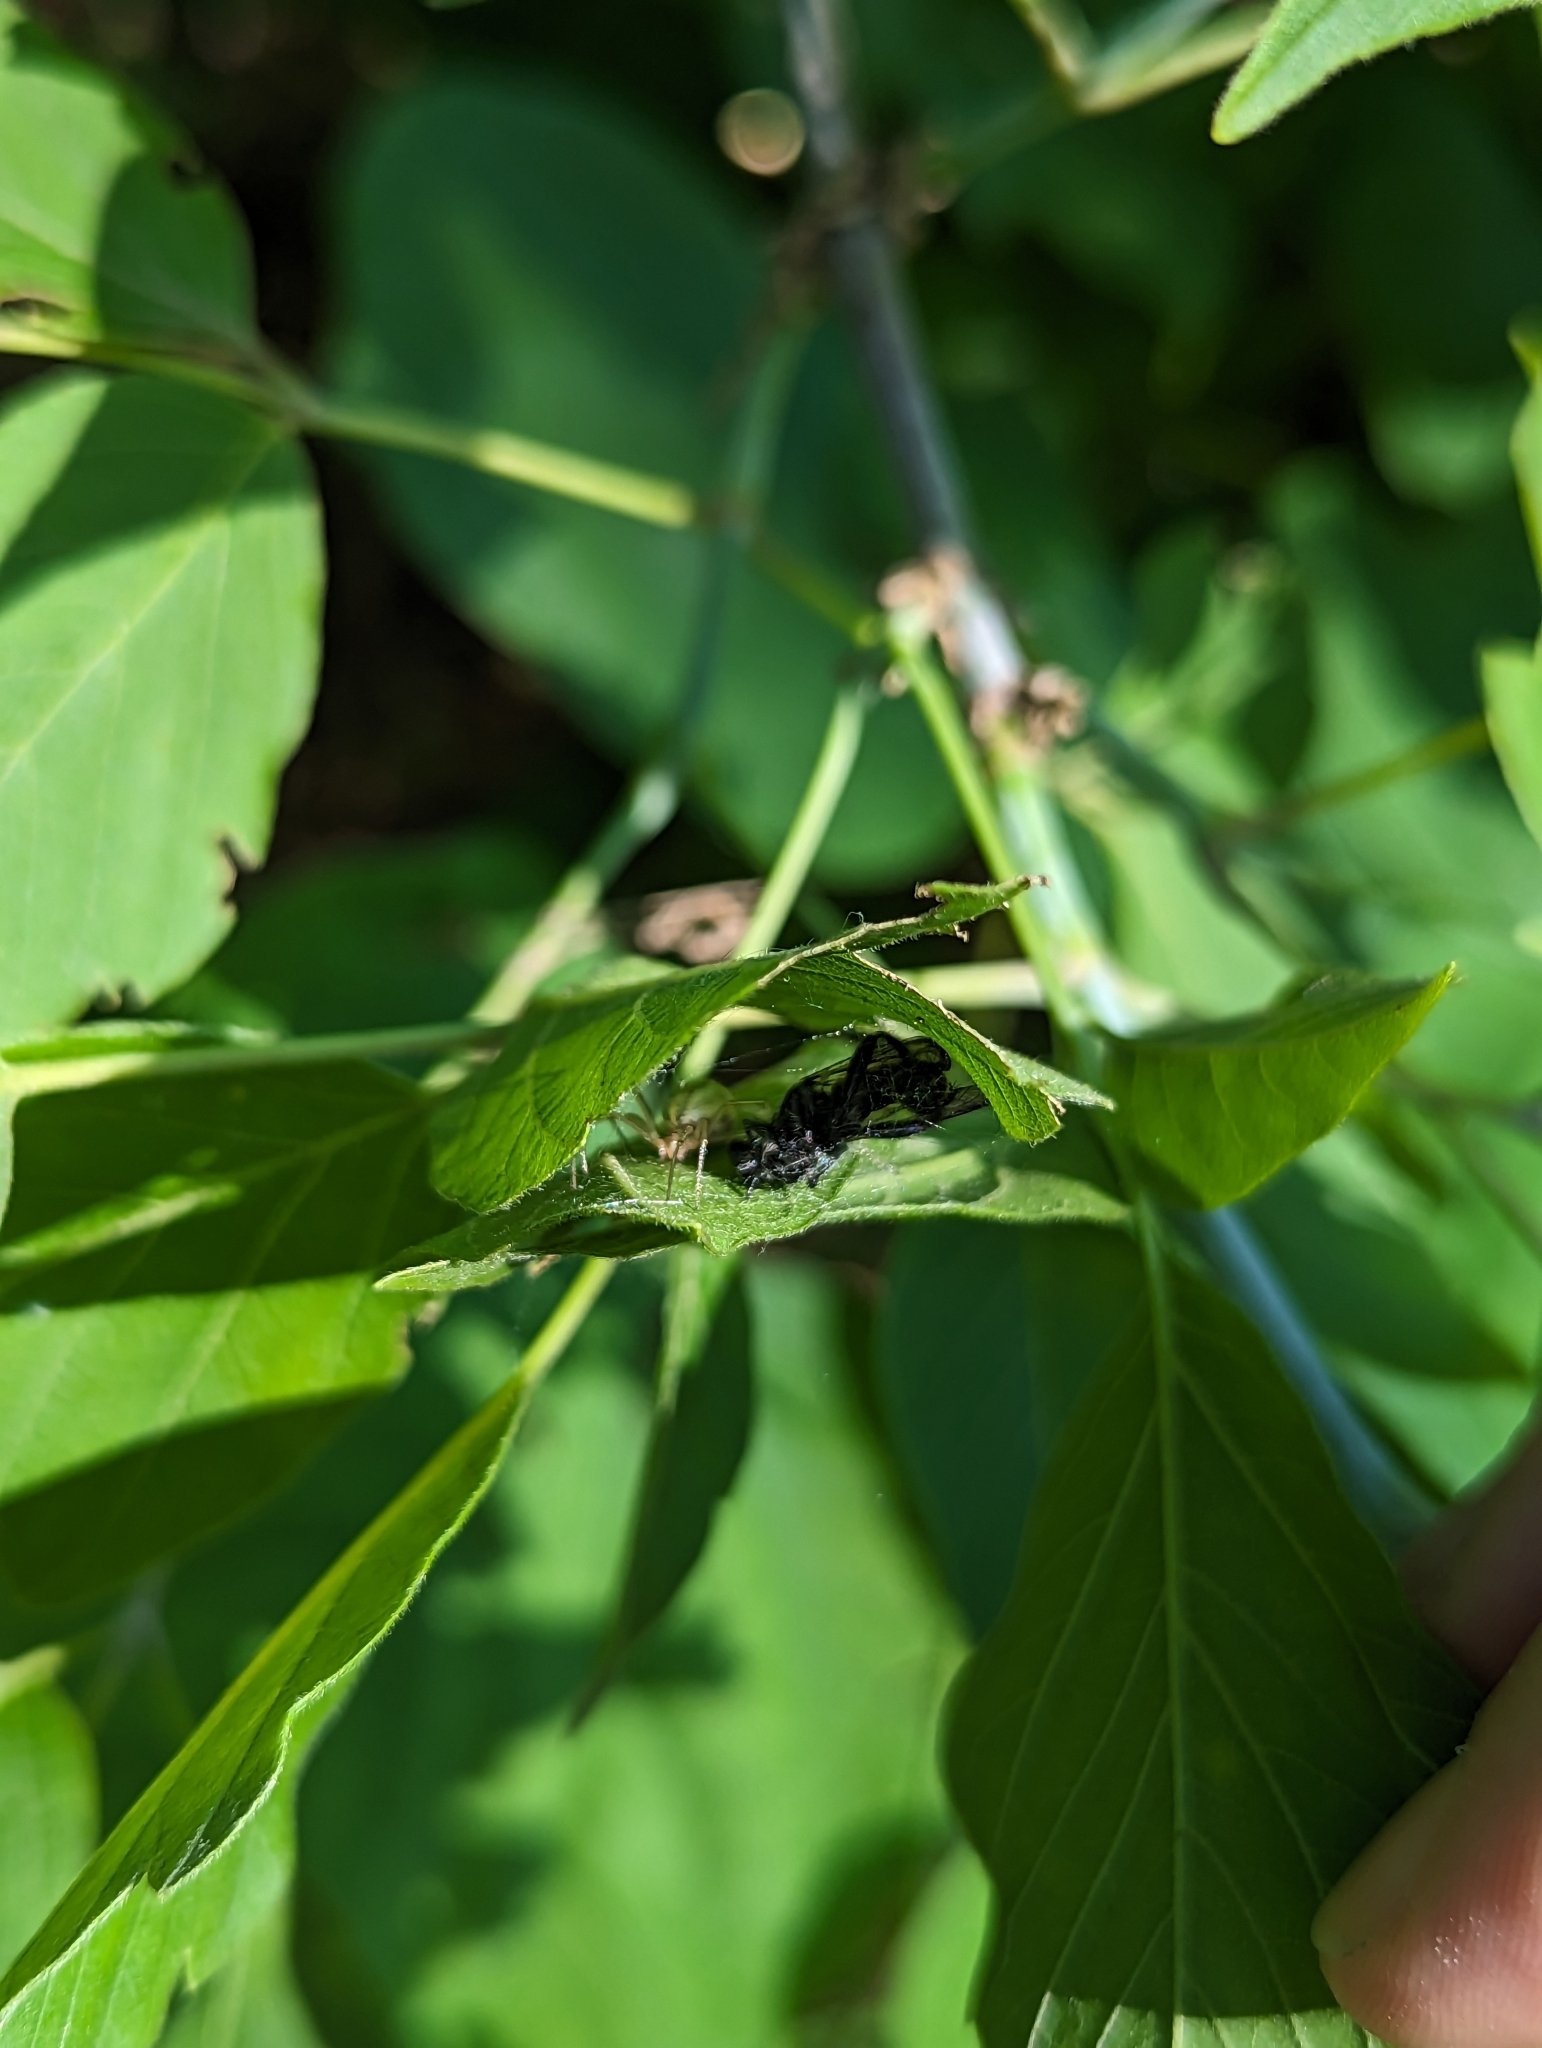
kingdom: Animalia
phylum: Arthropoda
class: Arachnida
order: Araneae
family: Theridiidae
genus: Enoplognatha
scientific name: Enoplognatha ovata
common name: Common candy-striped spider
